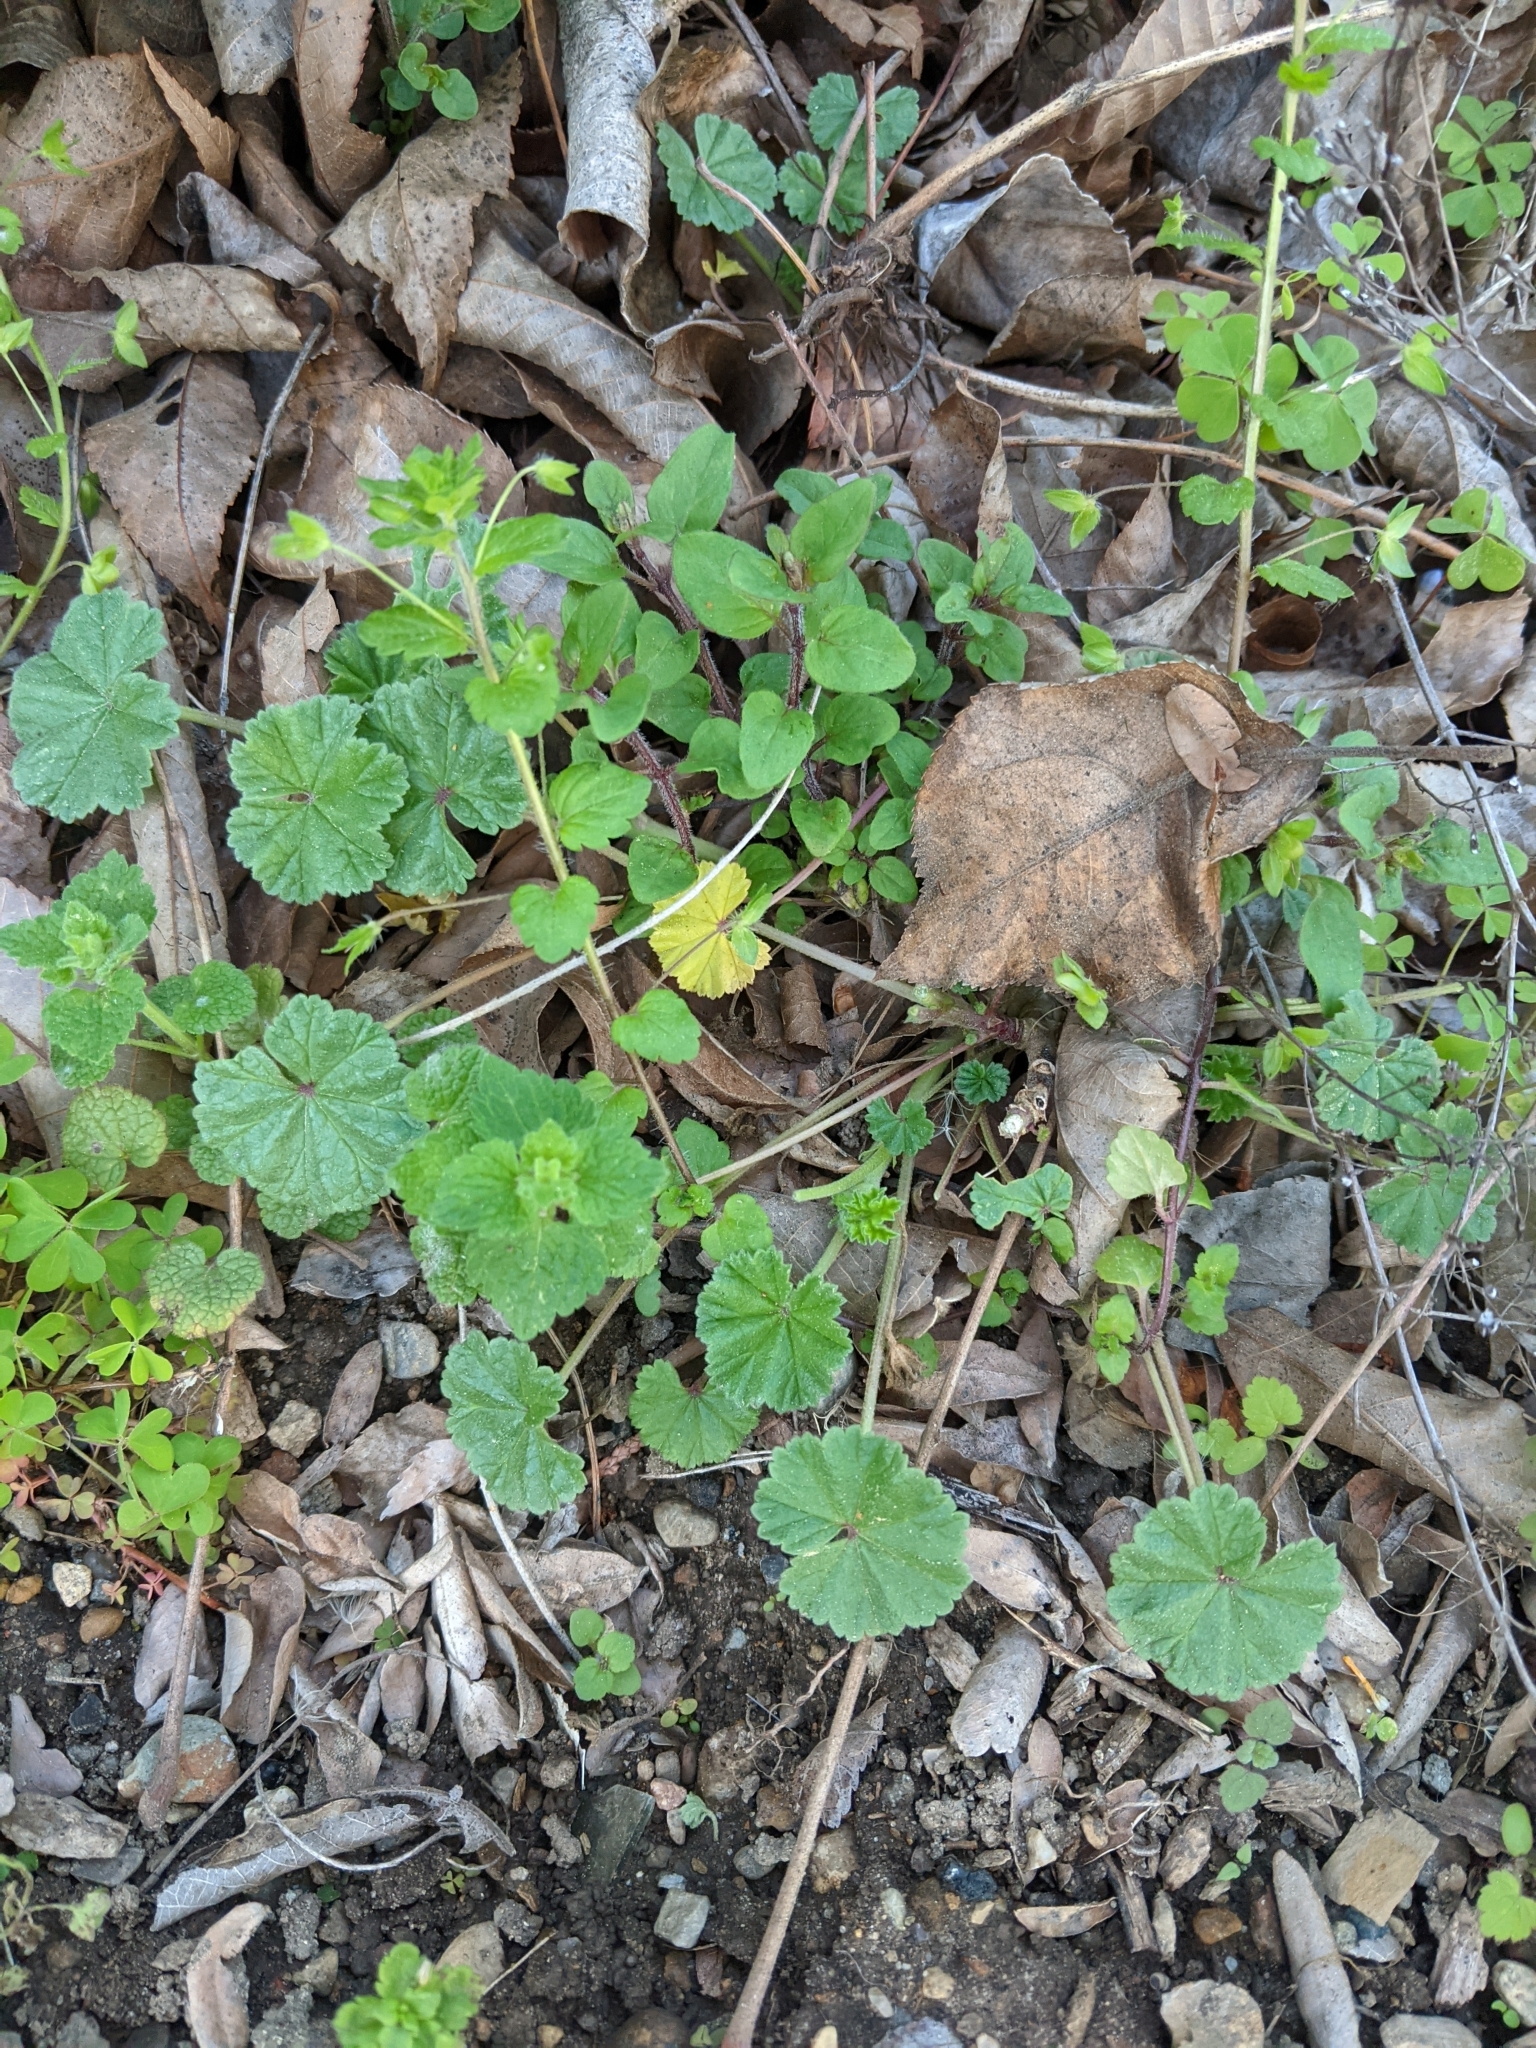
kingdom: Plantae
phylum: Tracheophyta
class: Magnoliopsida
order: Malvales
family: Malvaceae
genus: Malva
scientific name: Malva neglecta
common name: Common mallow
